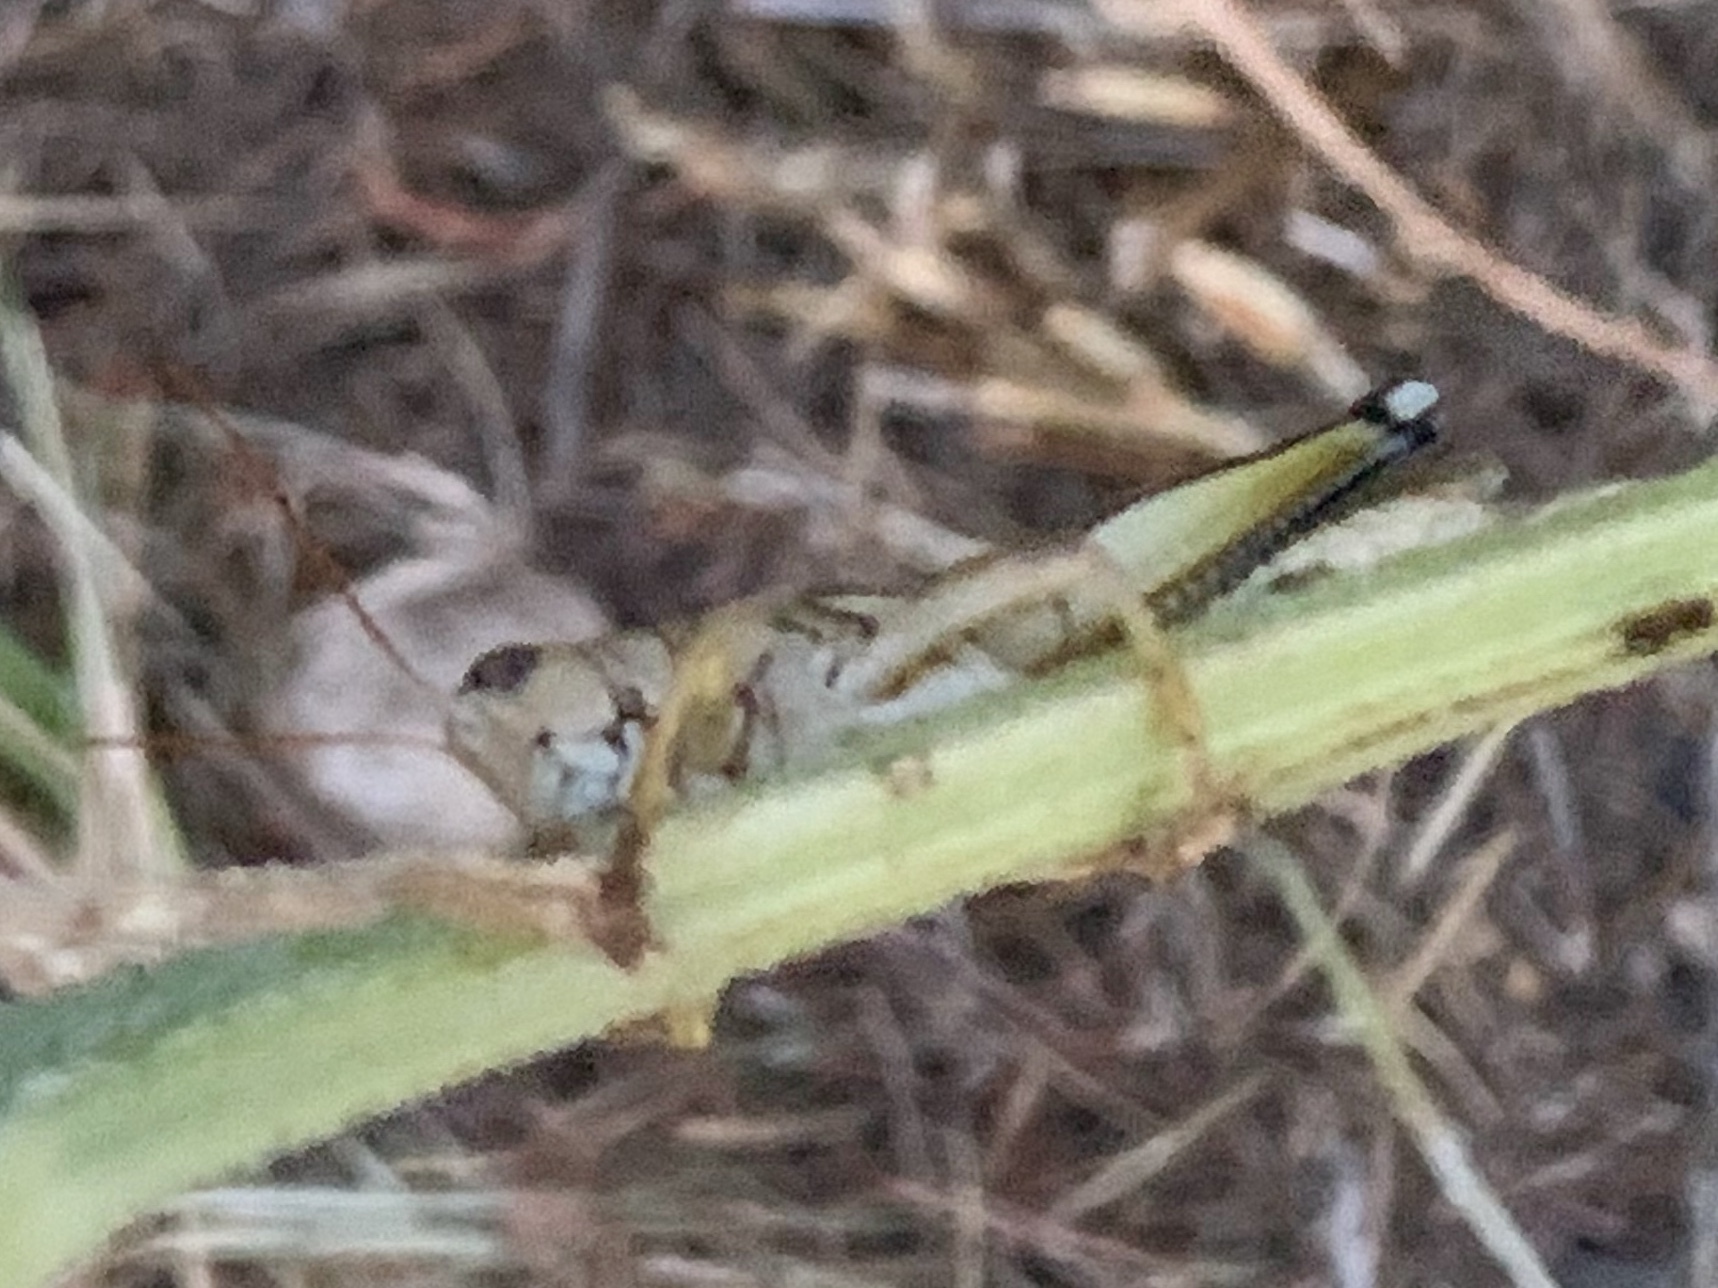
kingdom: Animalia
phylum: Arthropoda
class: Insecta
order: Orthoptera
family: Acrididae
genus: Melanoplus
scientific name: Melanoplus bivittatus
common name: Two-striped grasshopper
